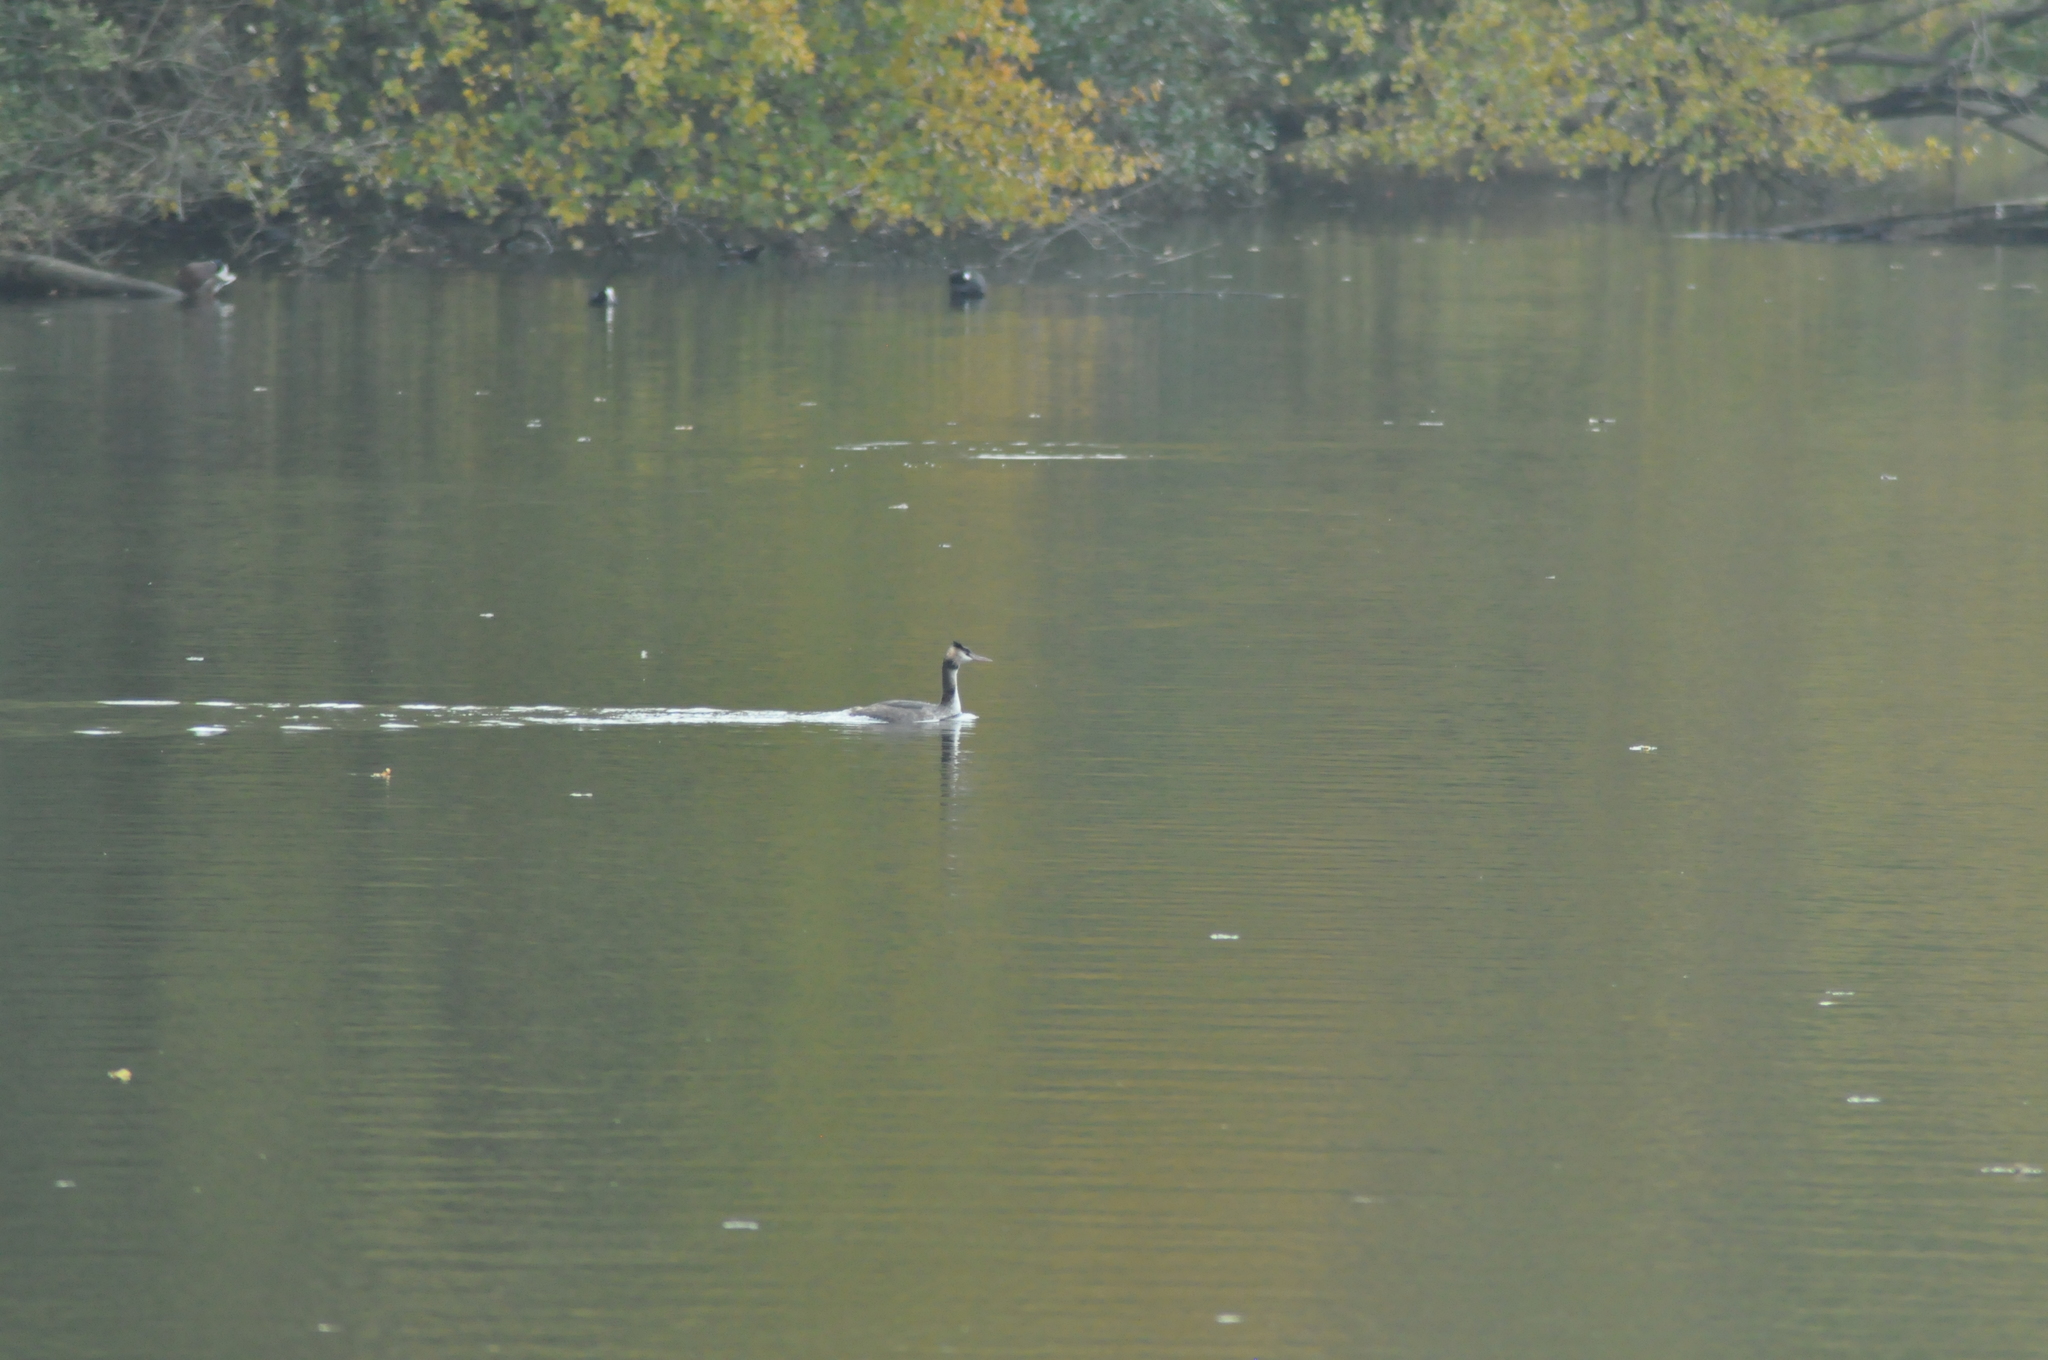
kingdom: Animalia
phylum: Chordata
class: Aves
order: Podicipediformes
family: Podicipedidae
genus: Podiceps
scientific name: Podiceps cristatus
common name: Great crested grebe
